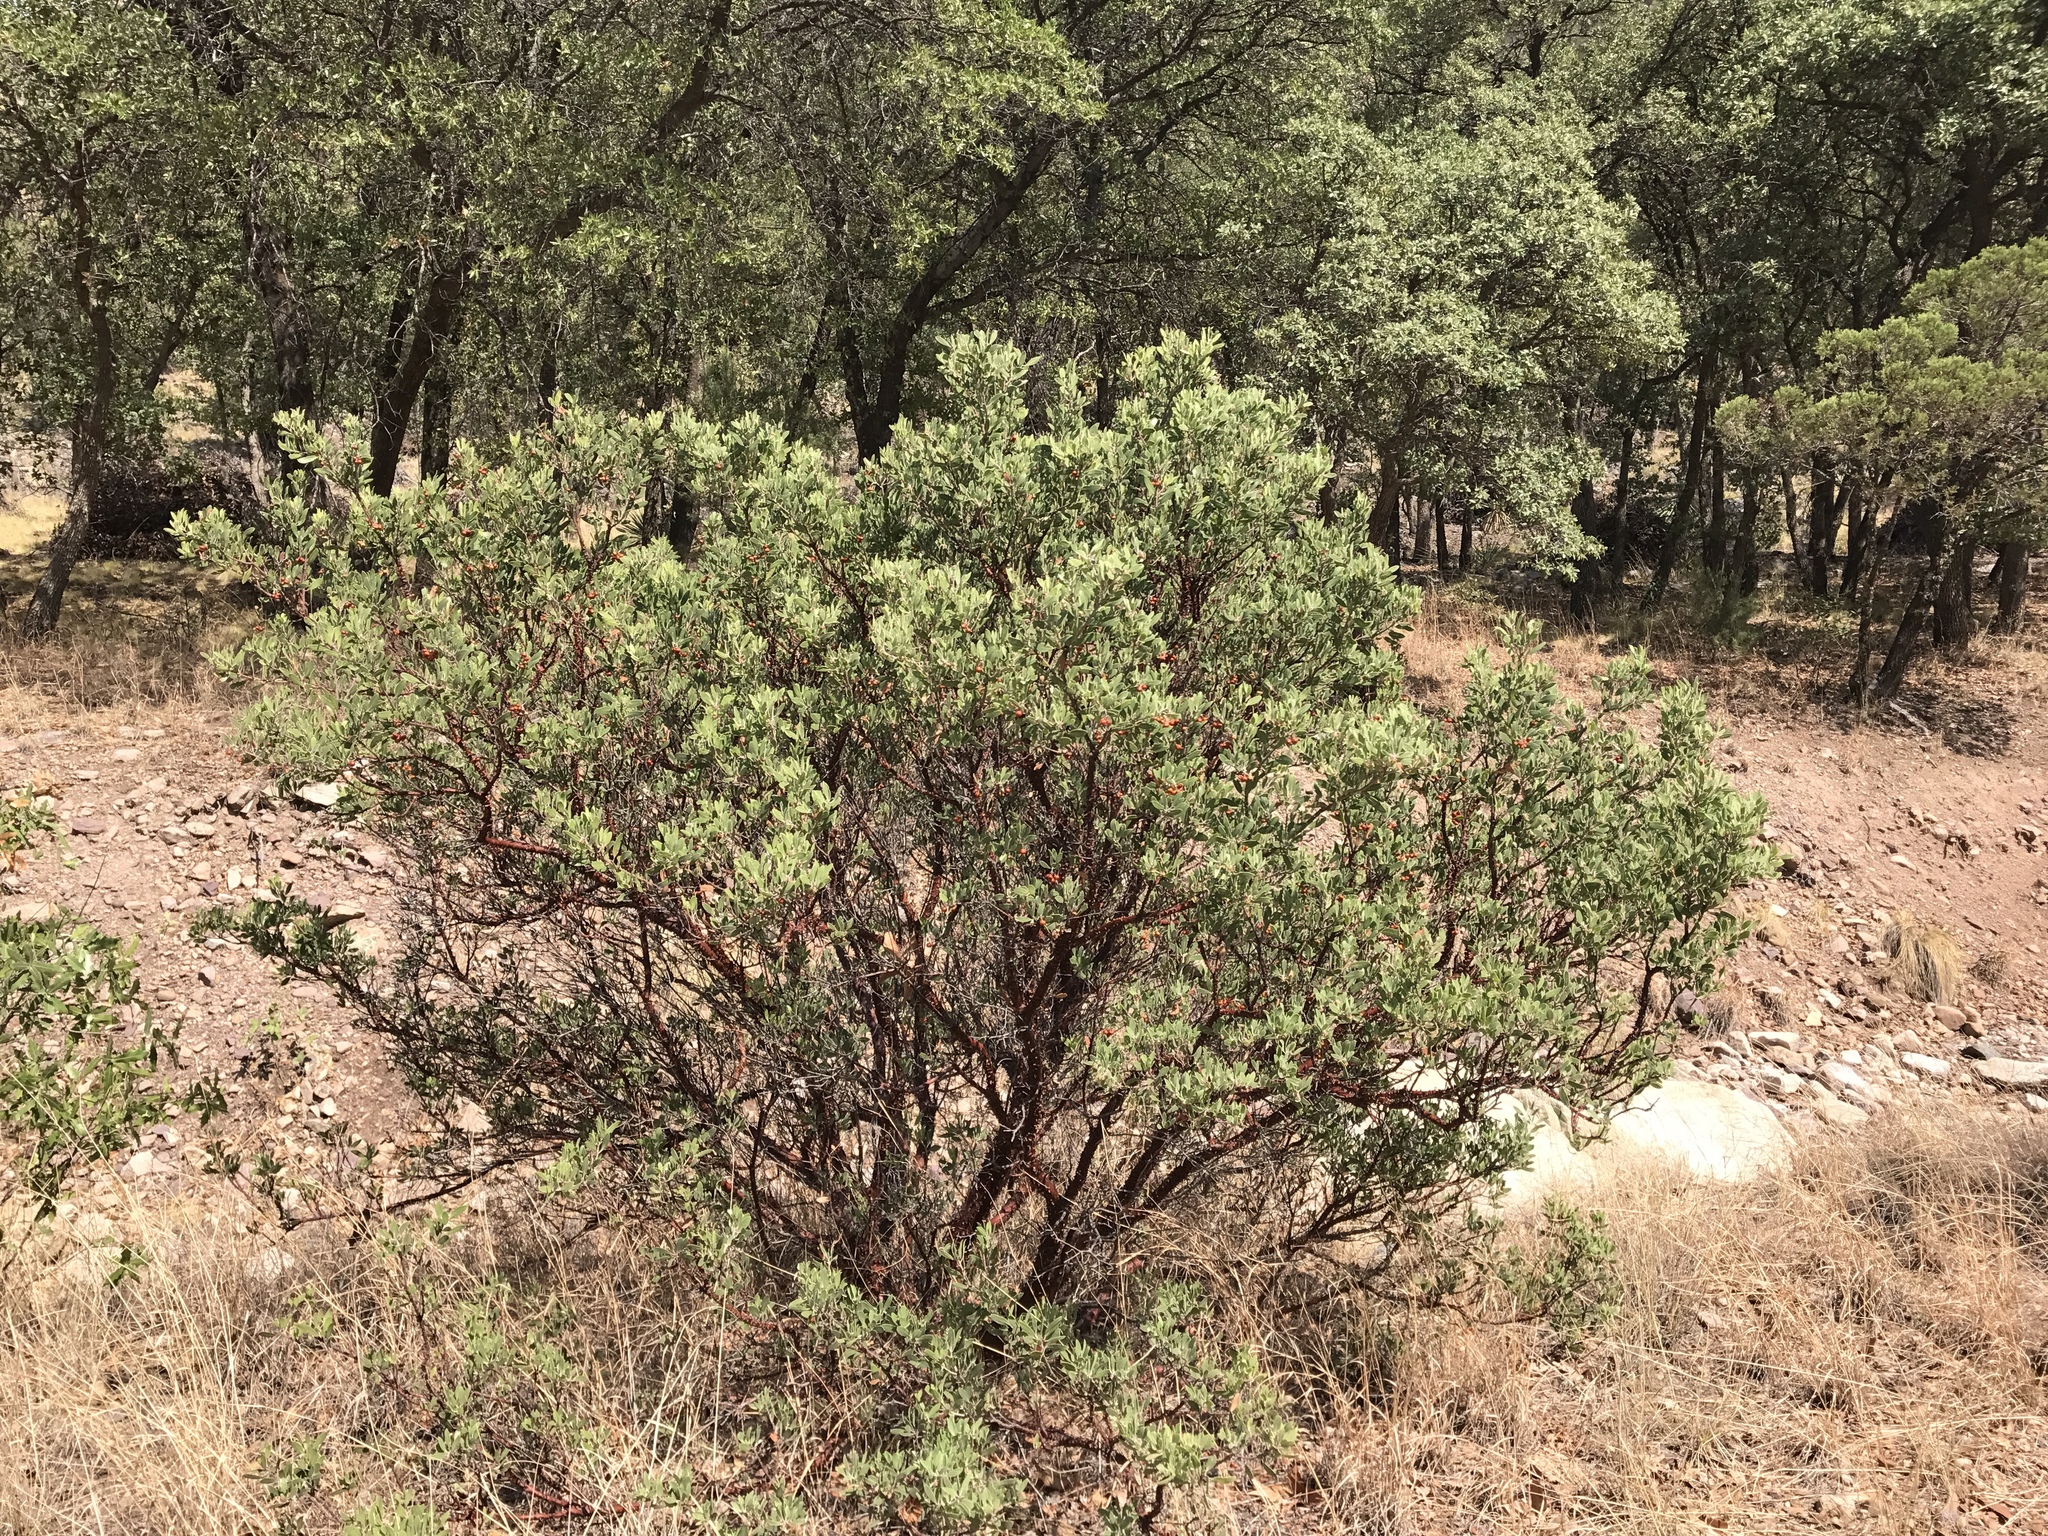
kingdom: Plantae
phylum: Tracheophyta
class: Magnoliopsida
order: Ericales
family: Ericaceae
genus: Arctostaphylos
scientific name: Arctostaphylos pungens
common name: Mexican manzanita
